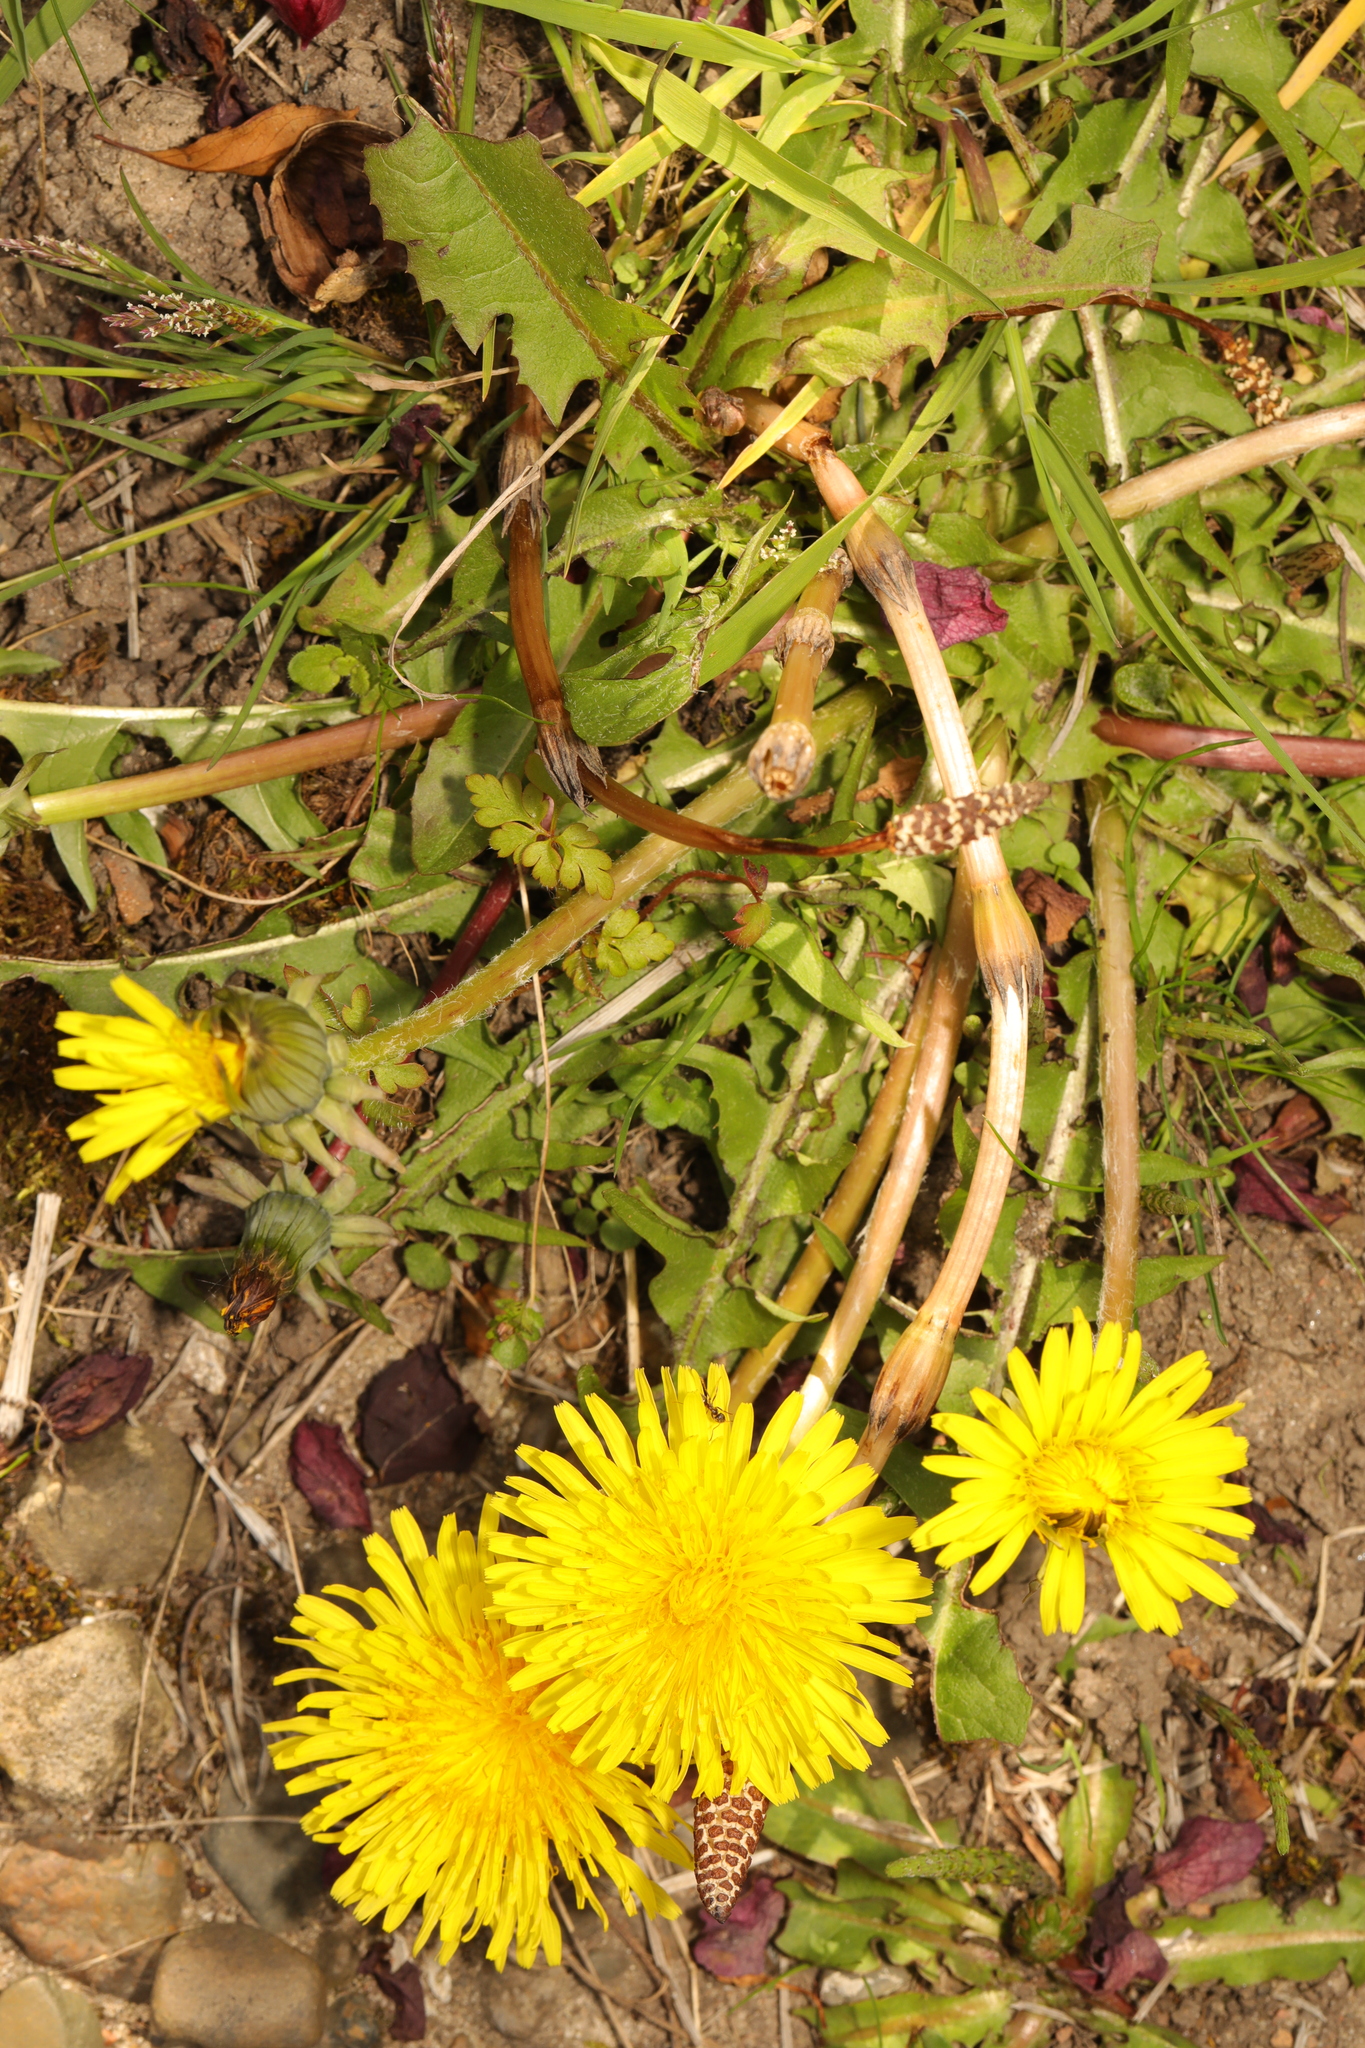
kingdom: Plantae
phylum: Tracheophyta
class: Magnoliopsida
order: Asterales
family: Asteraceae
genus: Taraxacum
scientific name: Taraxacum officinale
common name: Common dandelion
